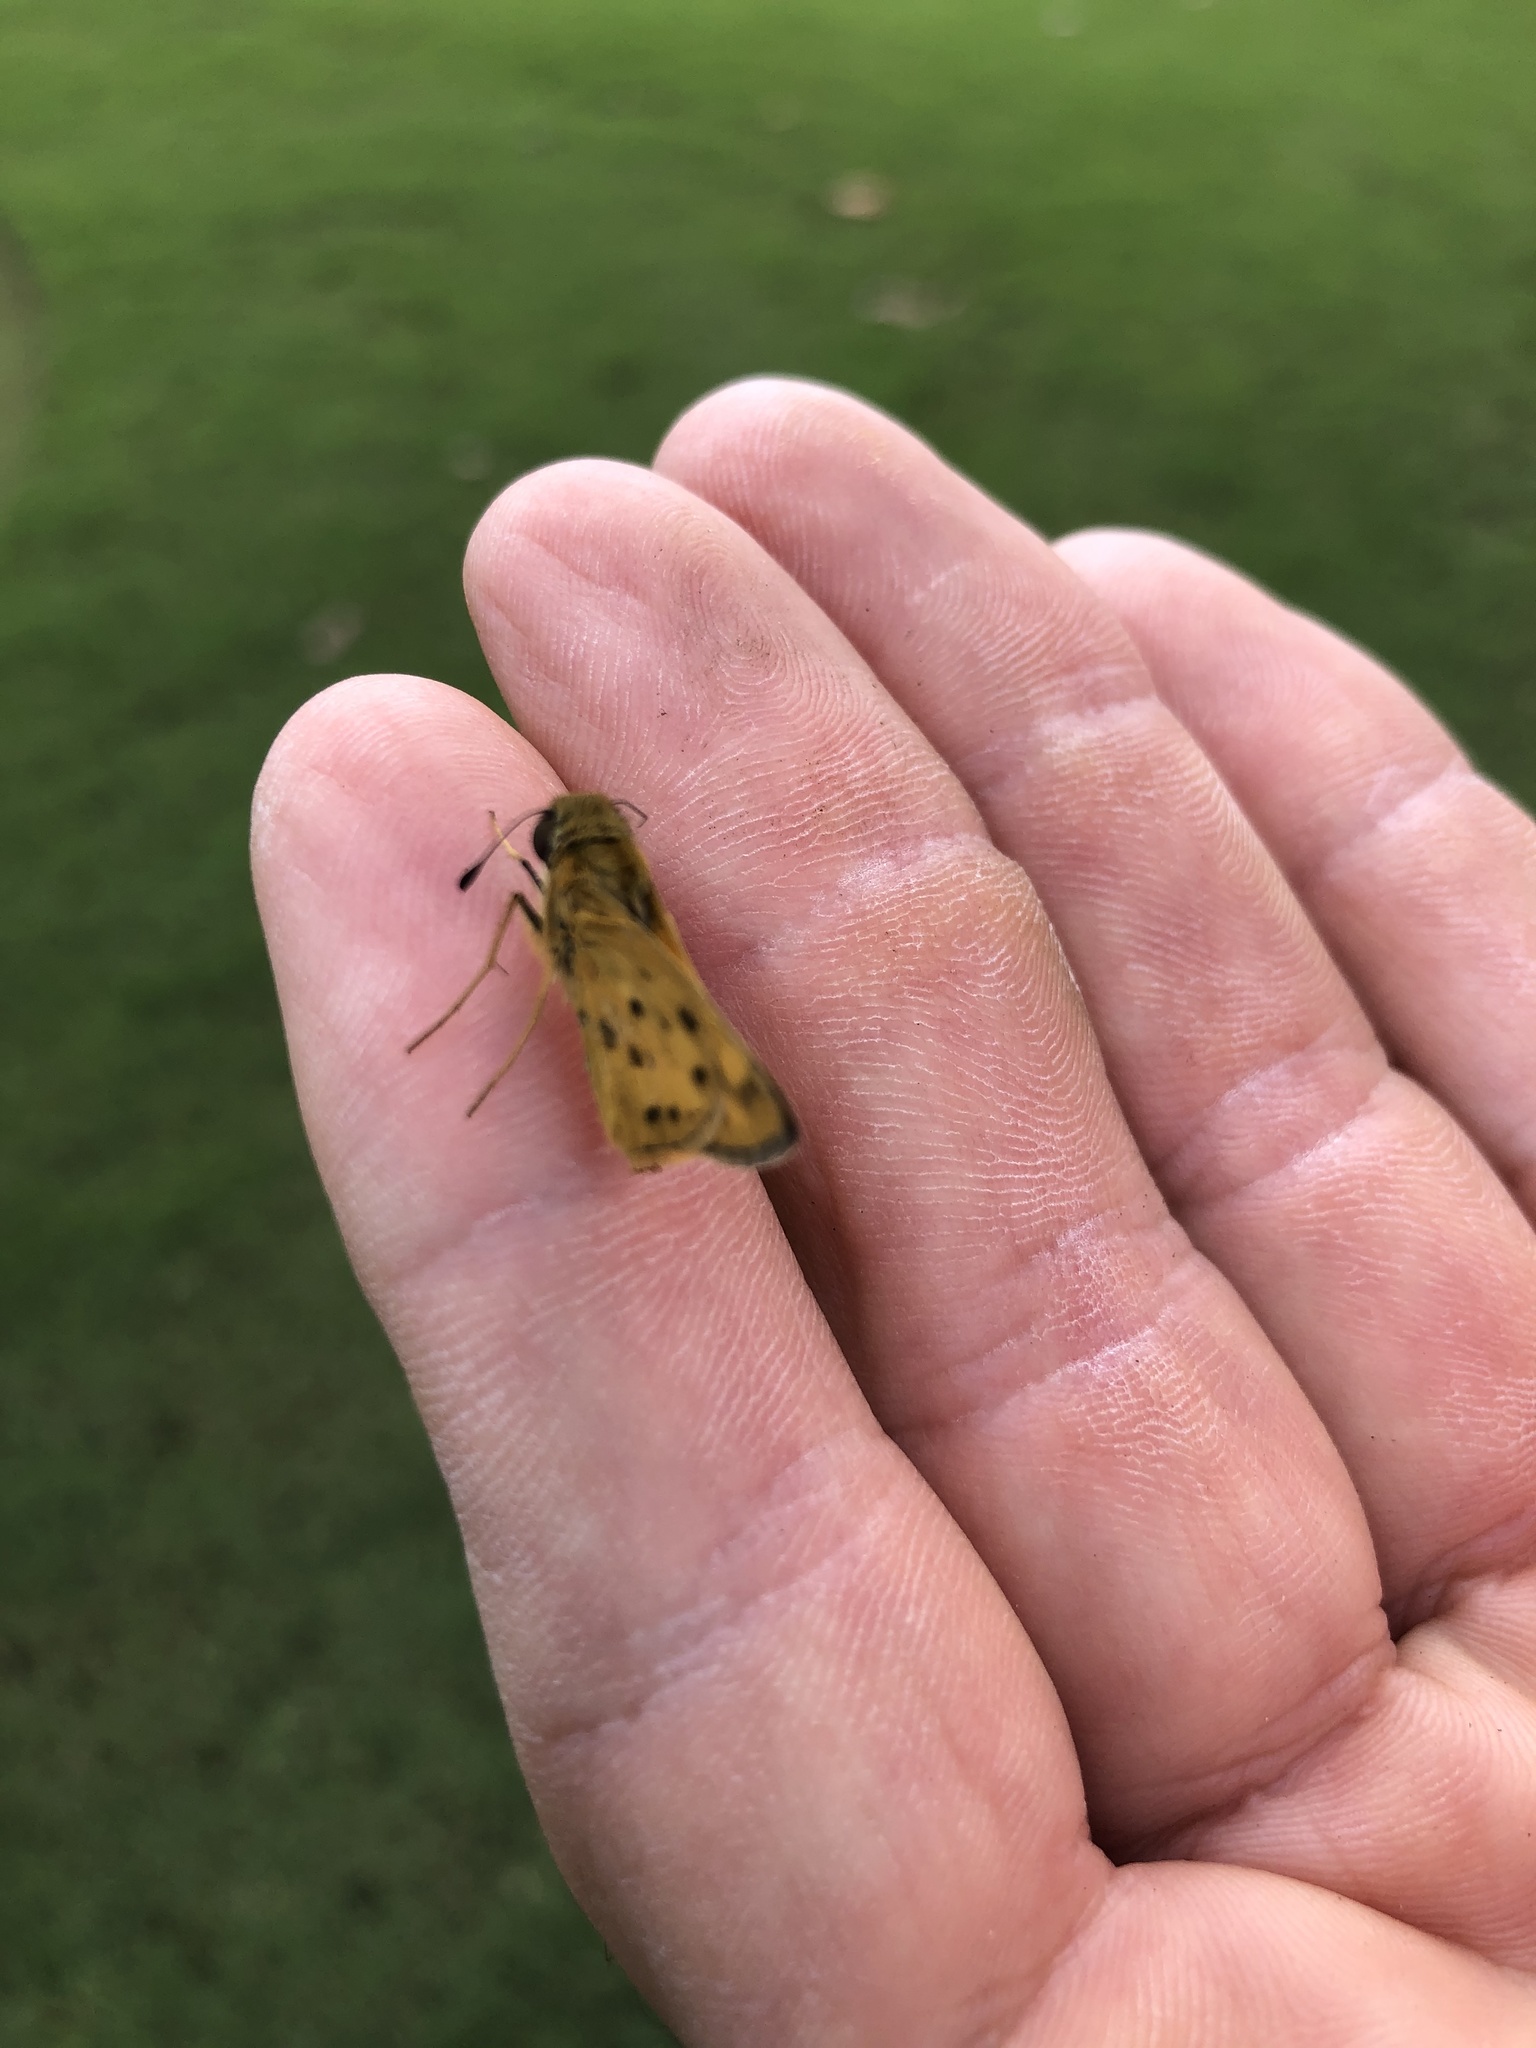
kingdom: Animalia
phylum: Arthropoda
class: Insecta
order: Lepidoptera
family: Hesperiidae
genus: Polites
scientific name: Polites vibex
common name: Whirlabout
